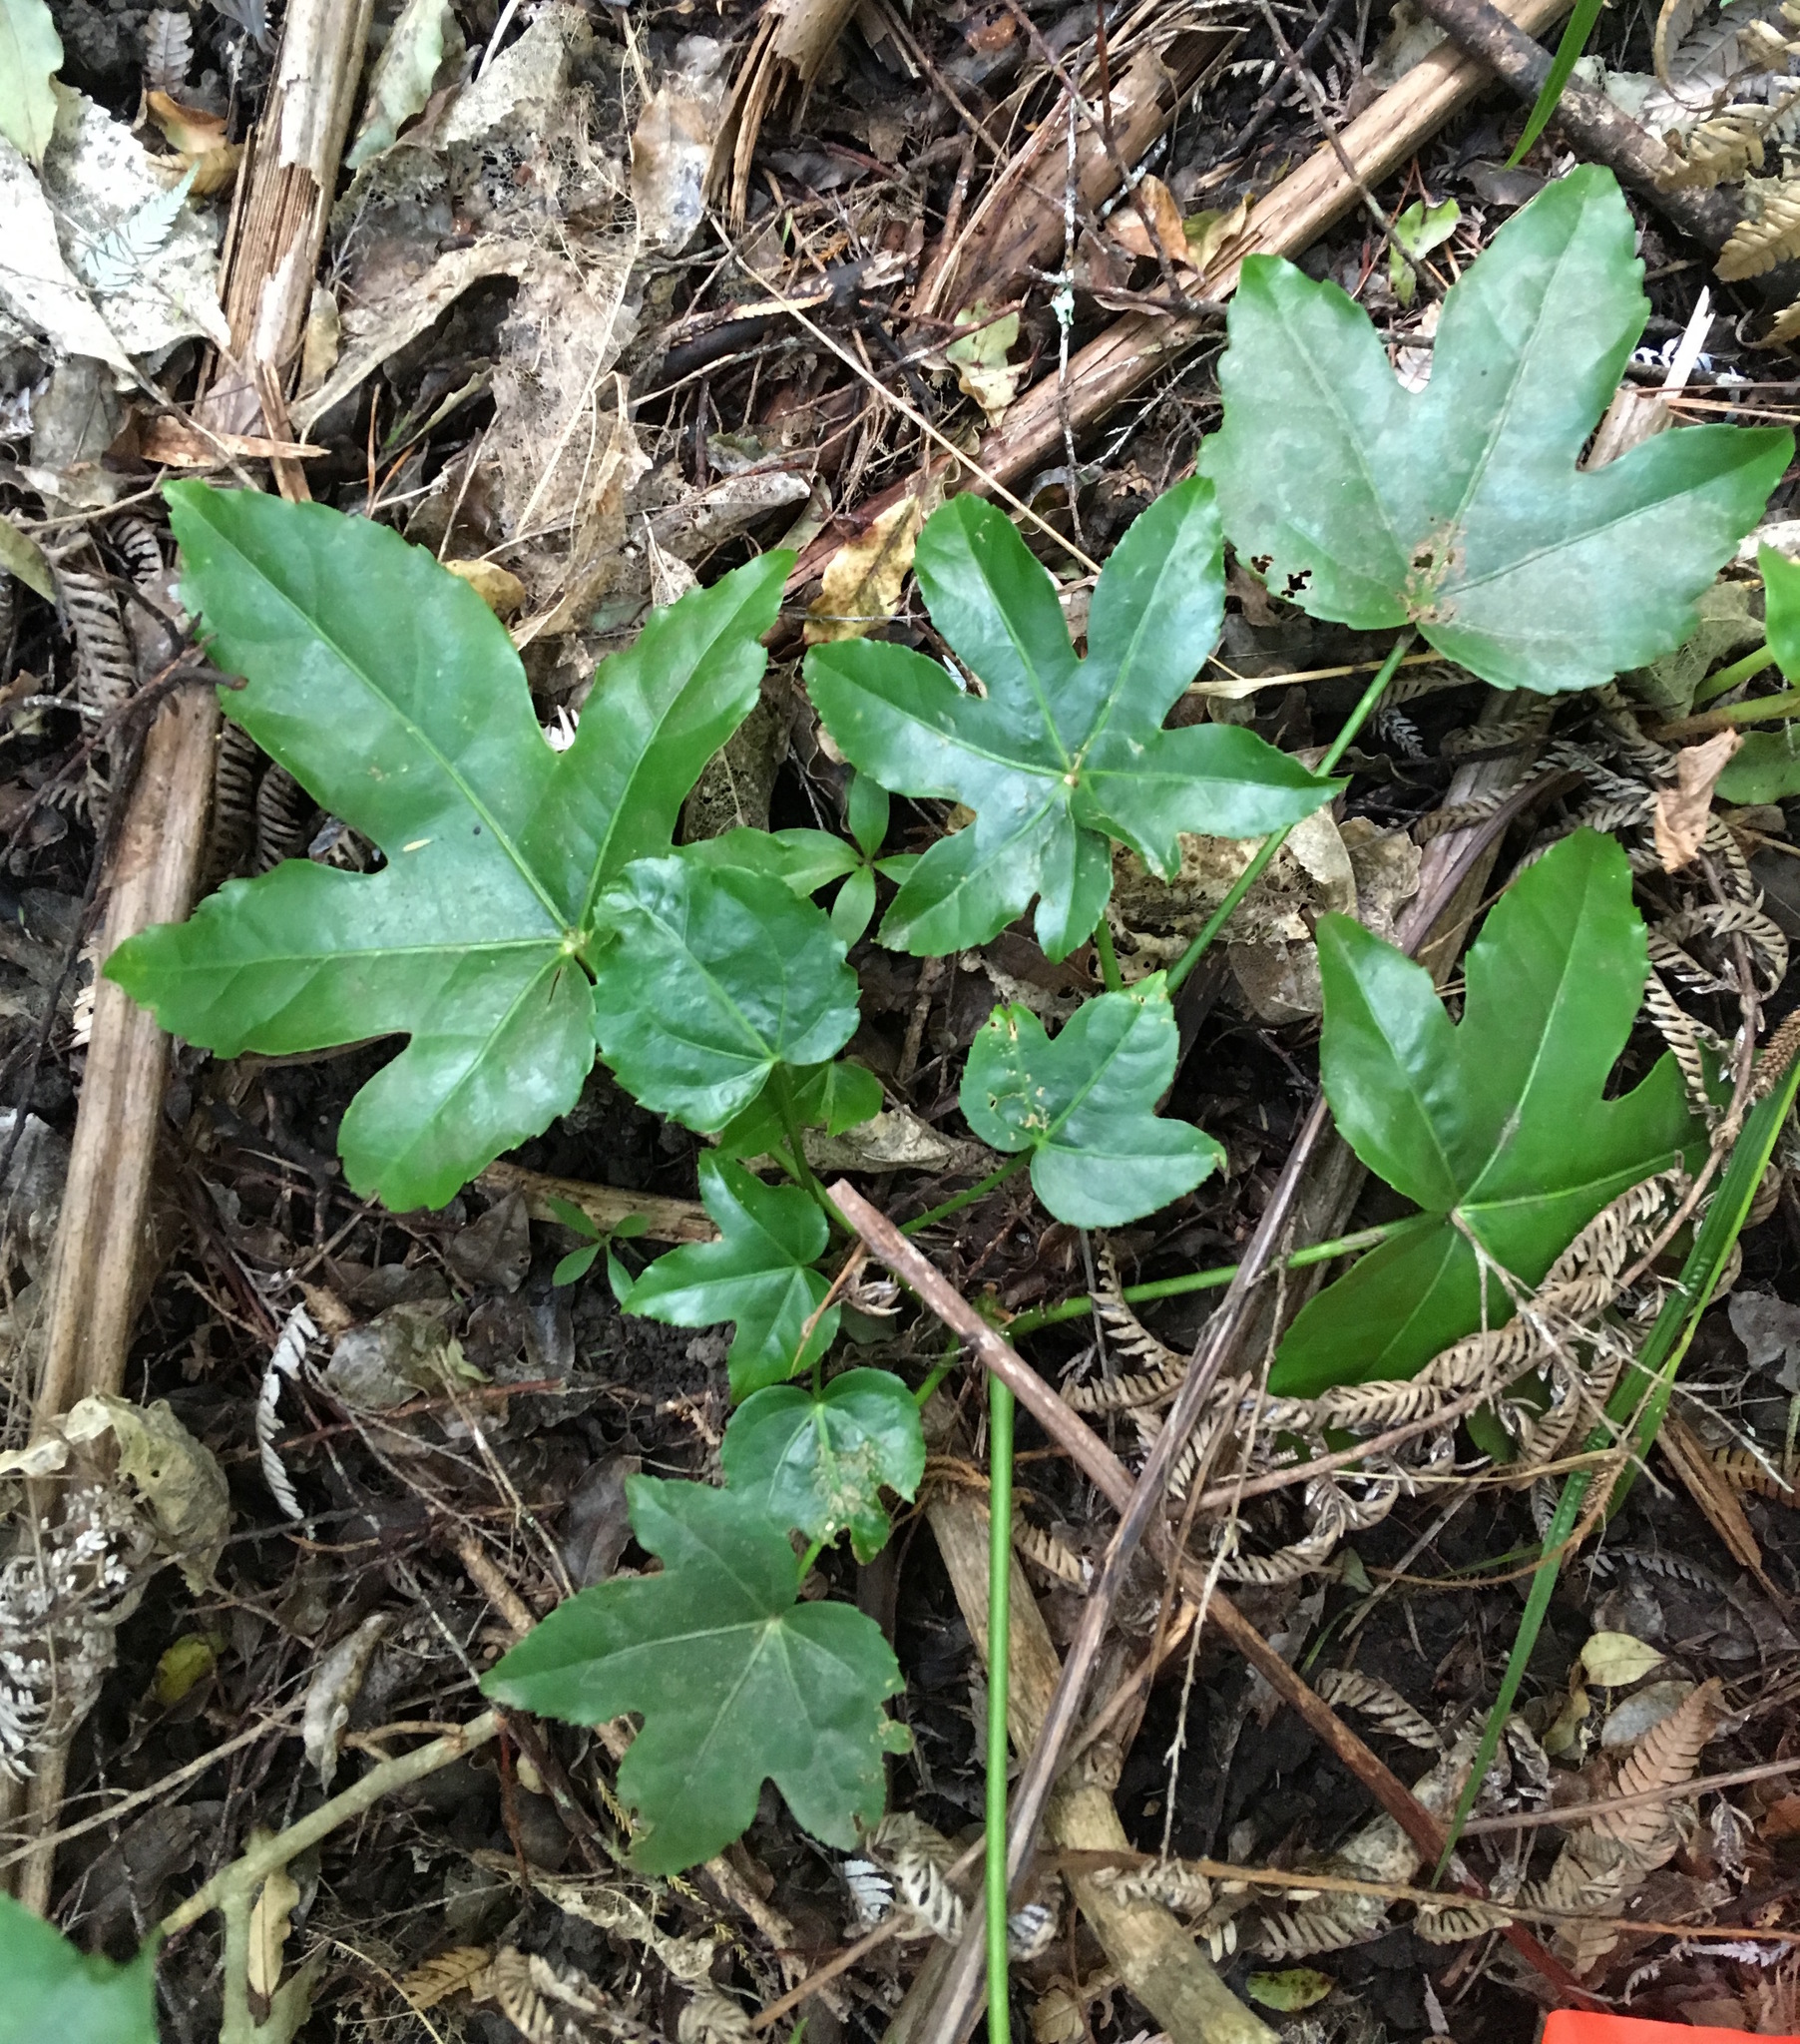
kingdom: Plantae
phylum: Tracheophyta
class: Magnoliopsida
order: Apiales
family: Araliaceae
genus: Fatsia
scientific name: Fatsia japonica
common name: Fatsia
